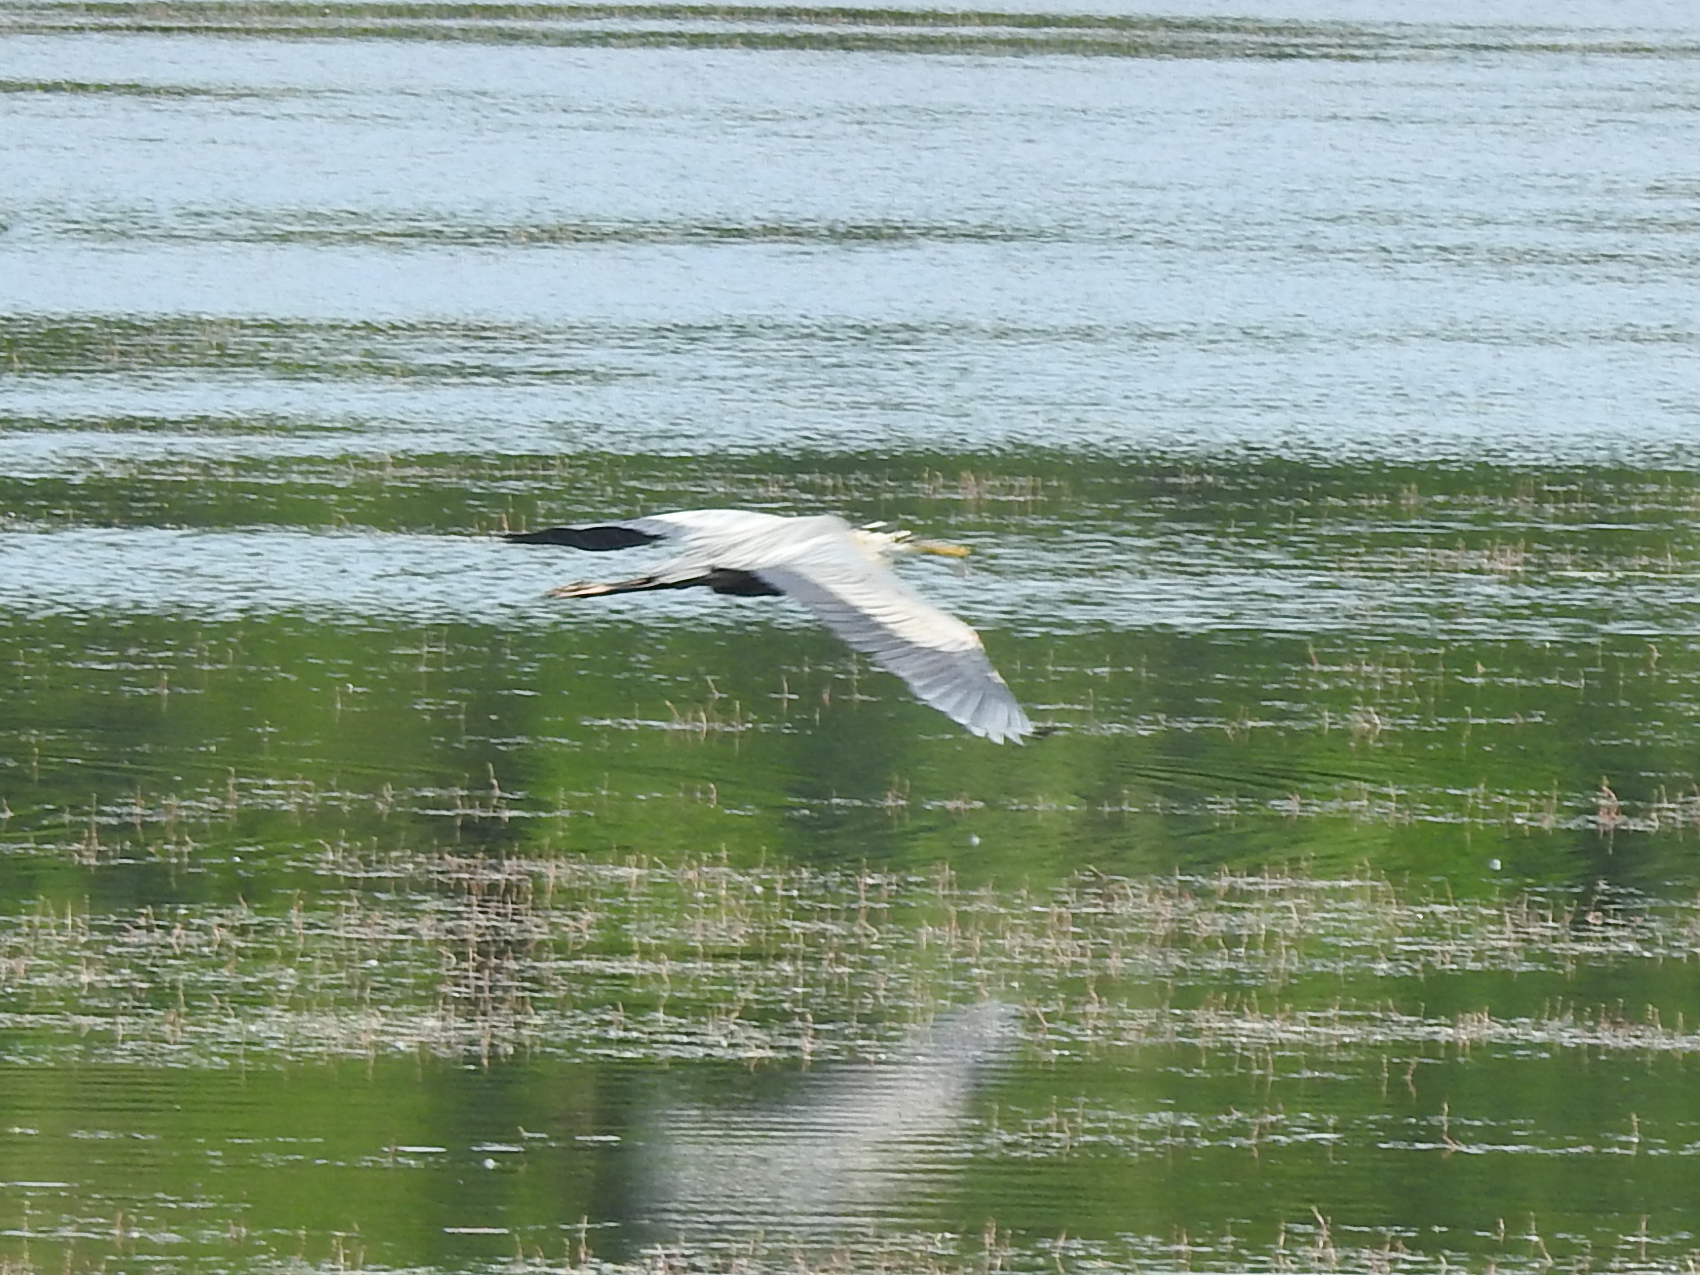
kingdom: Animalia
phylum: Chordata
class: Aves
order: Pelecaniformes
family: Ardeidae
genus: Ardea
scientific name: Ardea herodias
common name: Great blue heron
